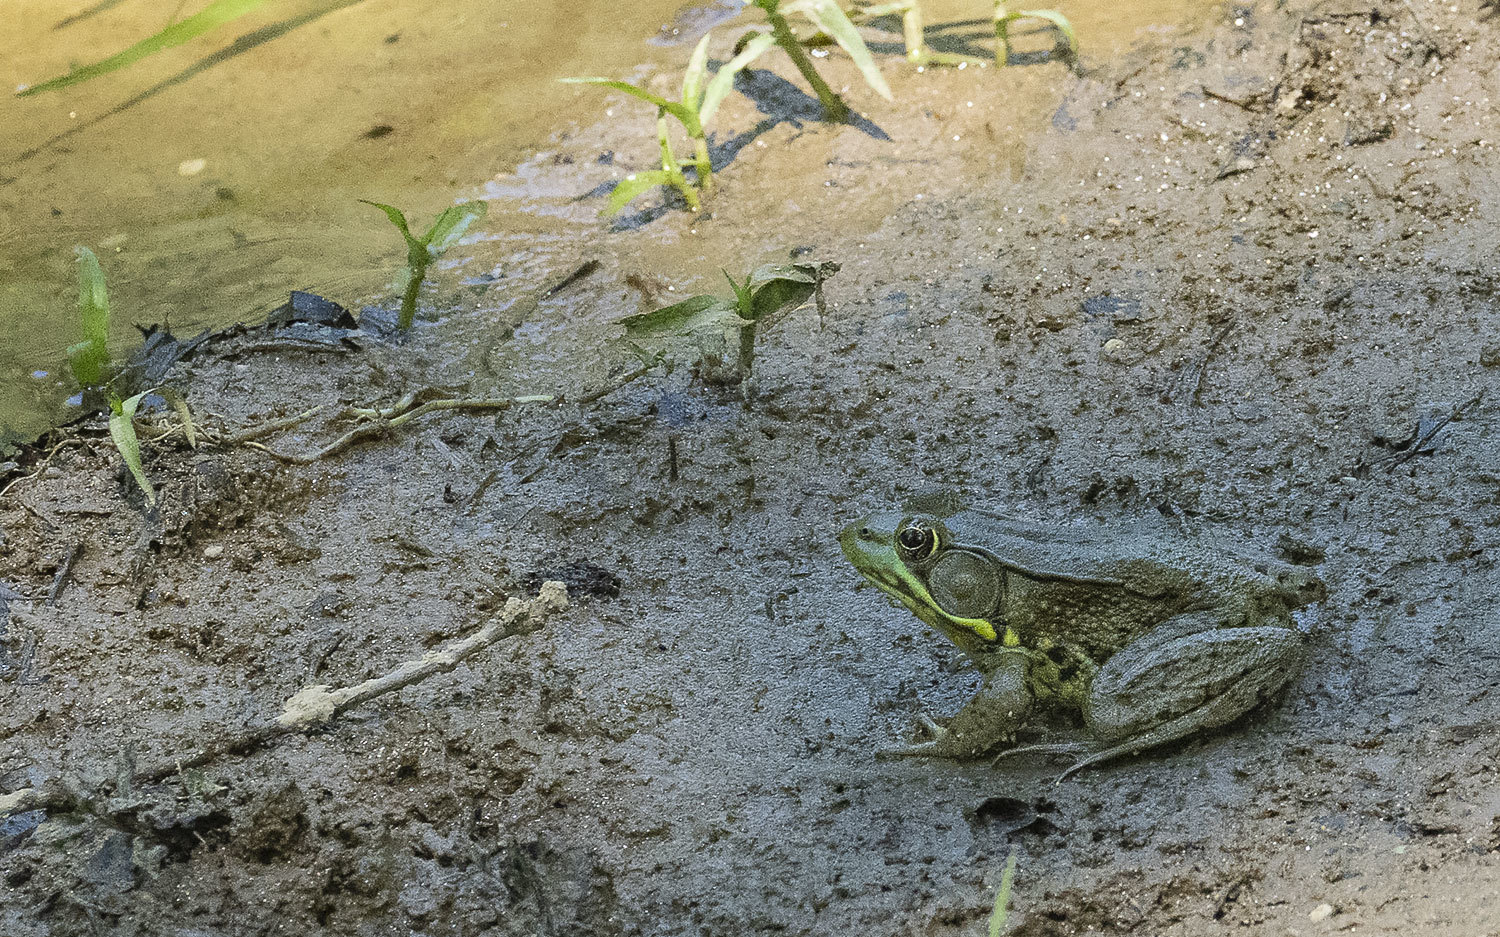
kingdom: Animalia
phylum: Chordata
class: Amphibia
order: Anura
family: Ranidae
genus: Lithobates
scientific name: Lithobates clamitans
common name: Green frog
